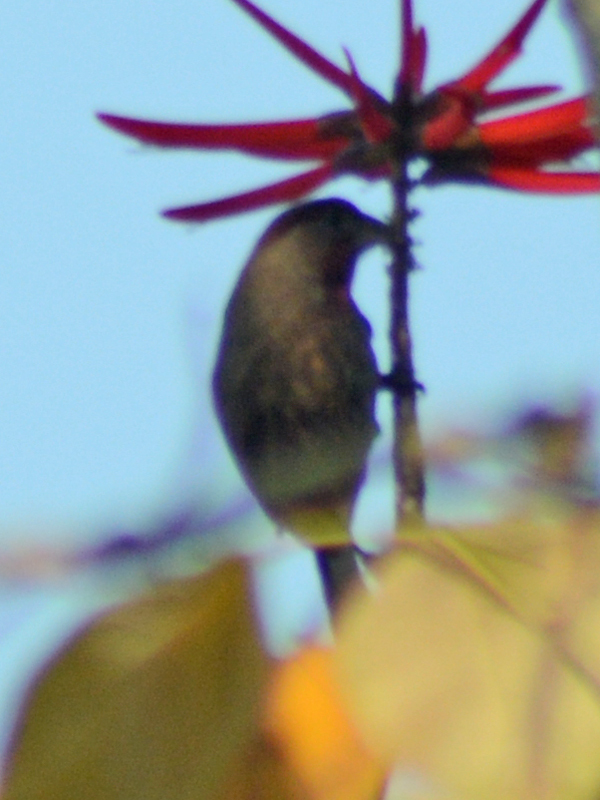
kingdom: Animalia
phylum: Chordata
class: Aves
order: Passeriformes
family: Fringillidae
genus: Haemorhous
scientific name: Haemorhous mexicanus
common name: House finch
